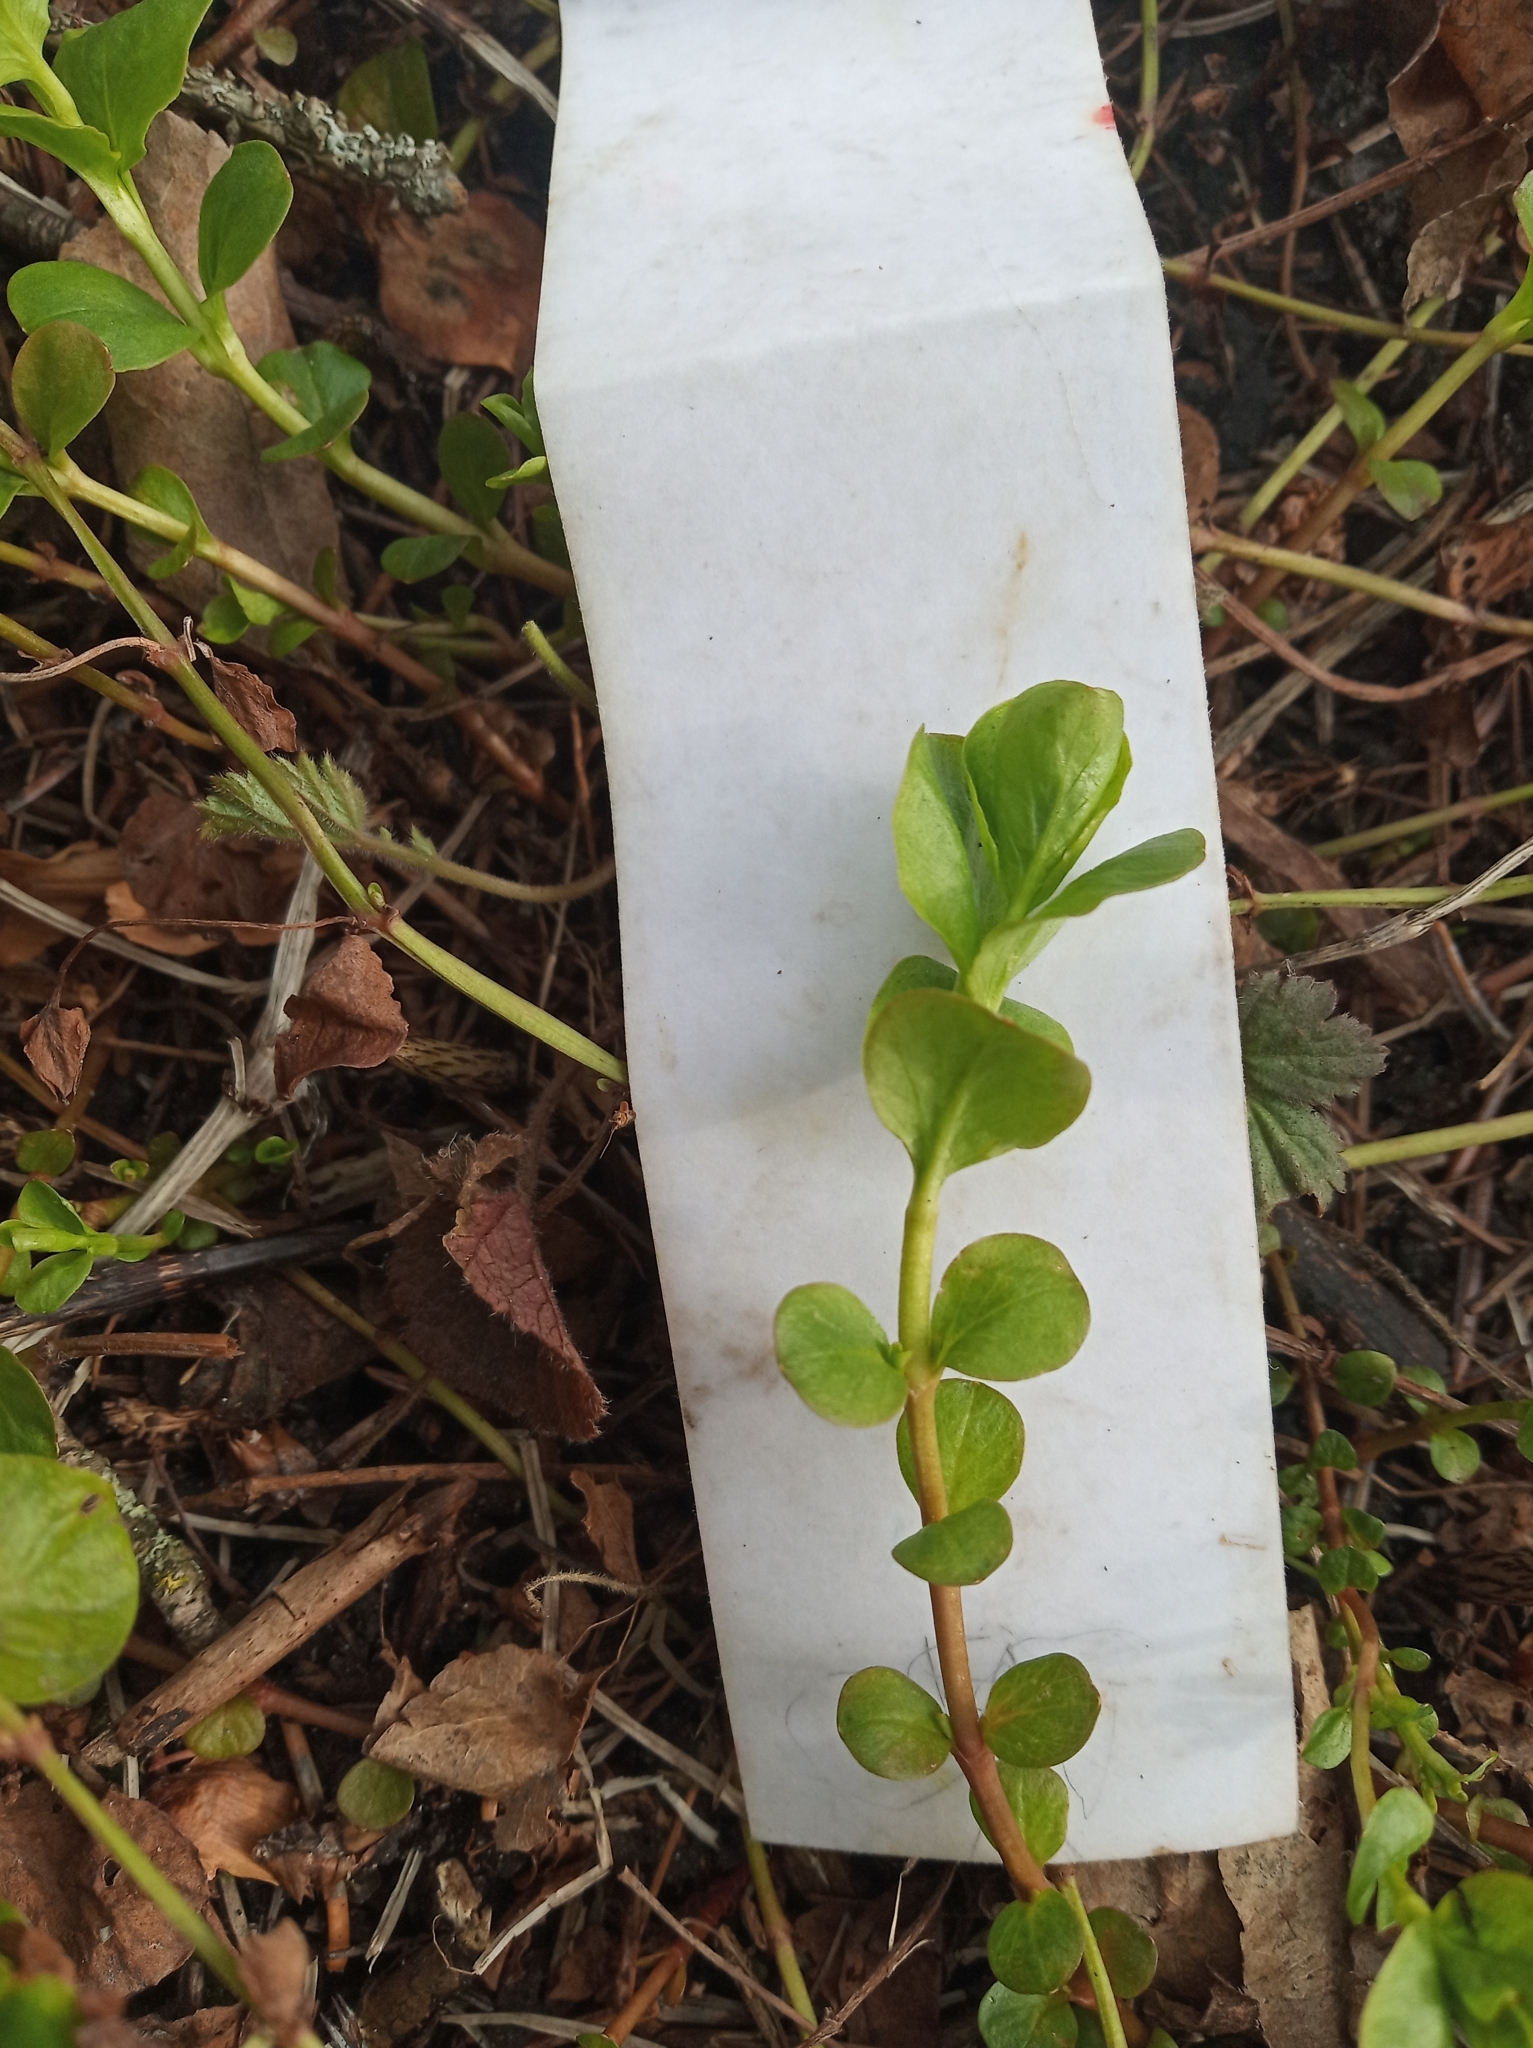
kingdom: Plantae
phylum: Tracheophyta
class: Magnoliopsida
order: Ericales
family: Primulaceae
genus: Lysimachia
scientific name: Lysimachia nummularia
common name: Moneywort
